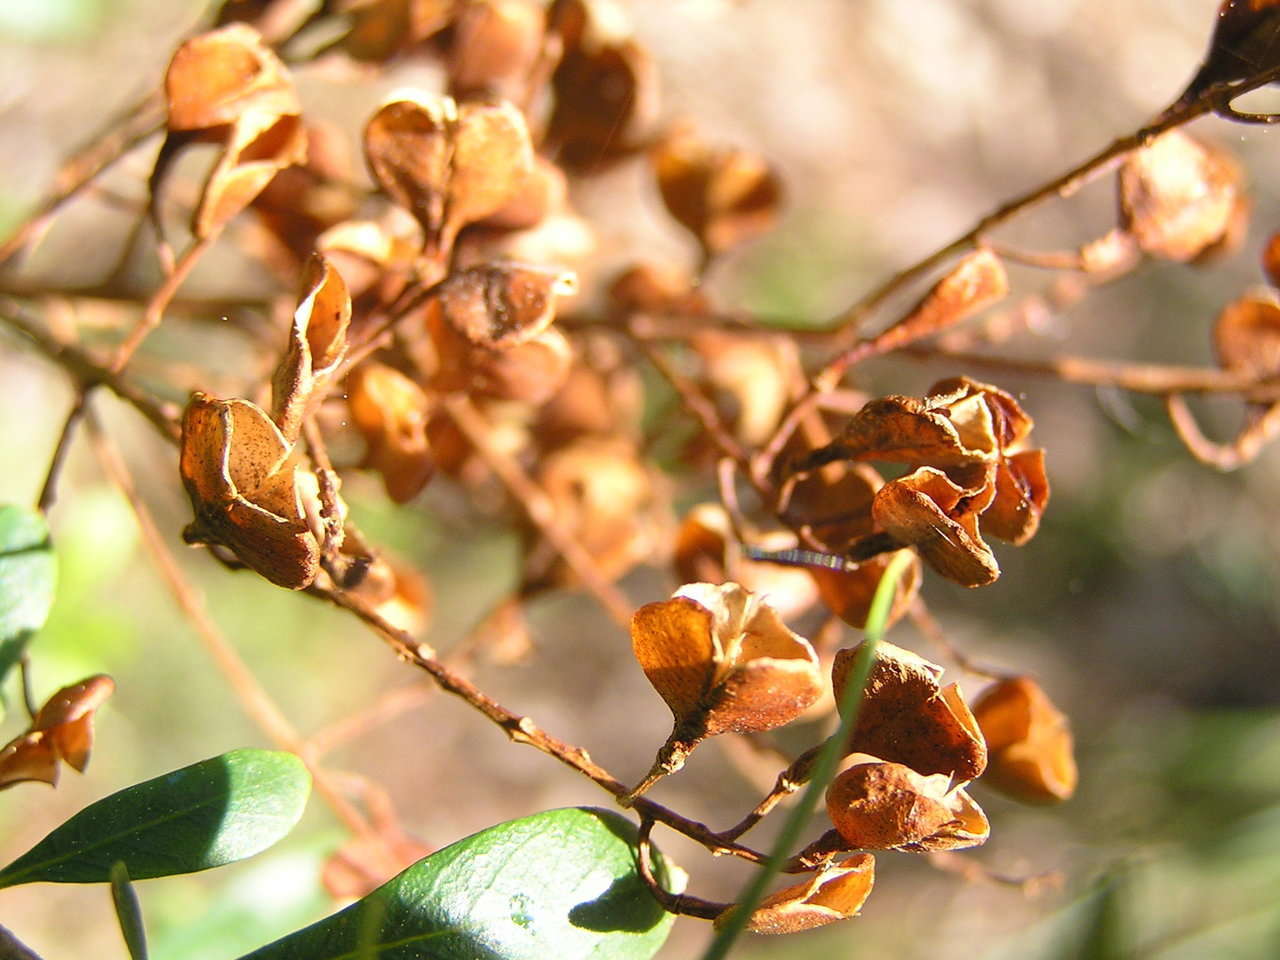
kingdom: Plantae
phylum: Tracheophyta
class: Magnoliopsida
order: Apiales
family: Pittosporaceae
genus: Bursaria
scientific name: Bursaria spinosa
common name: Australian blackthorn
